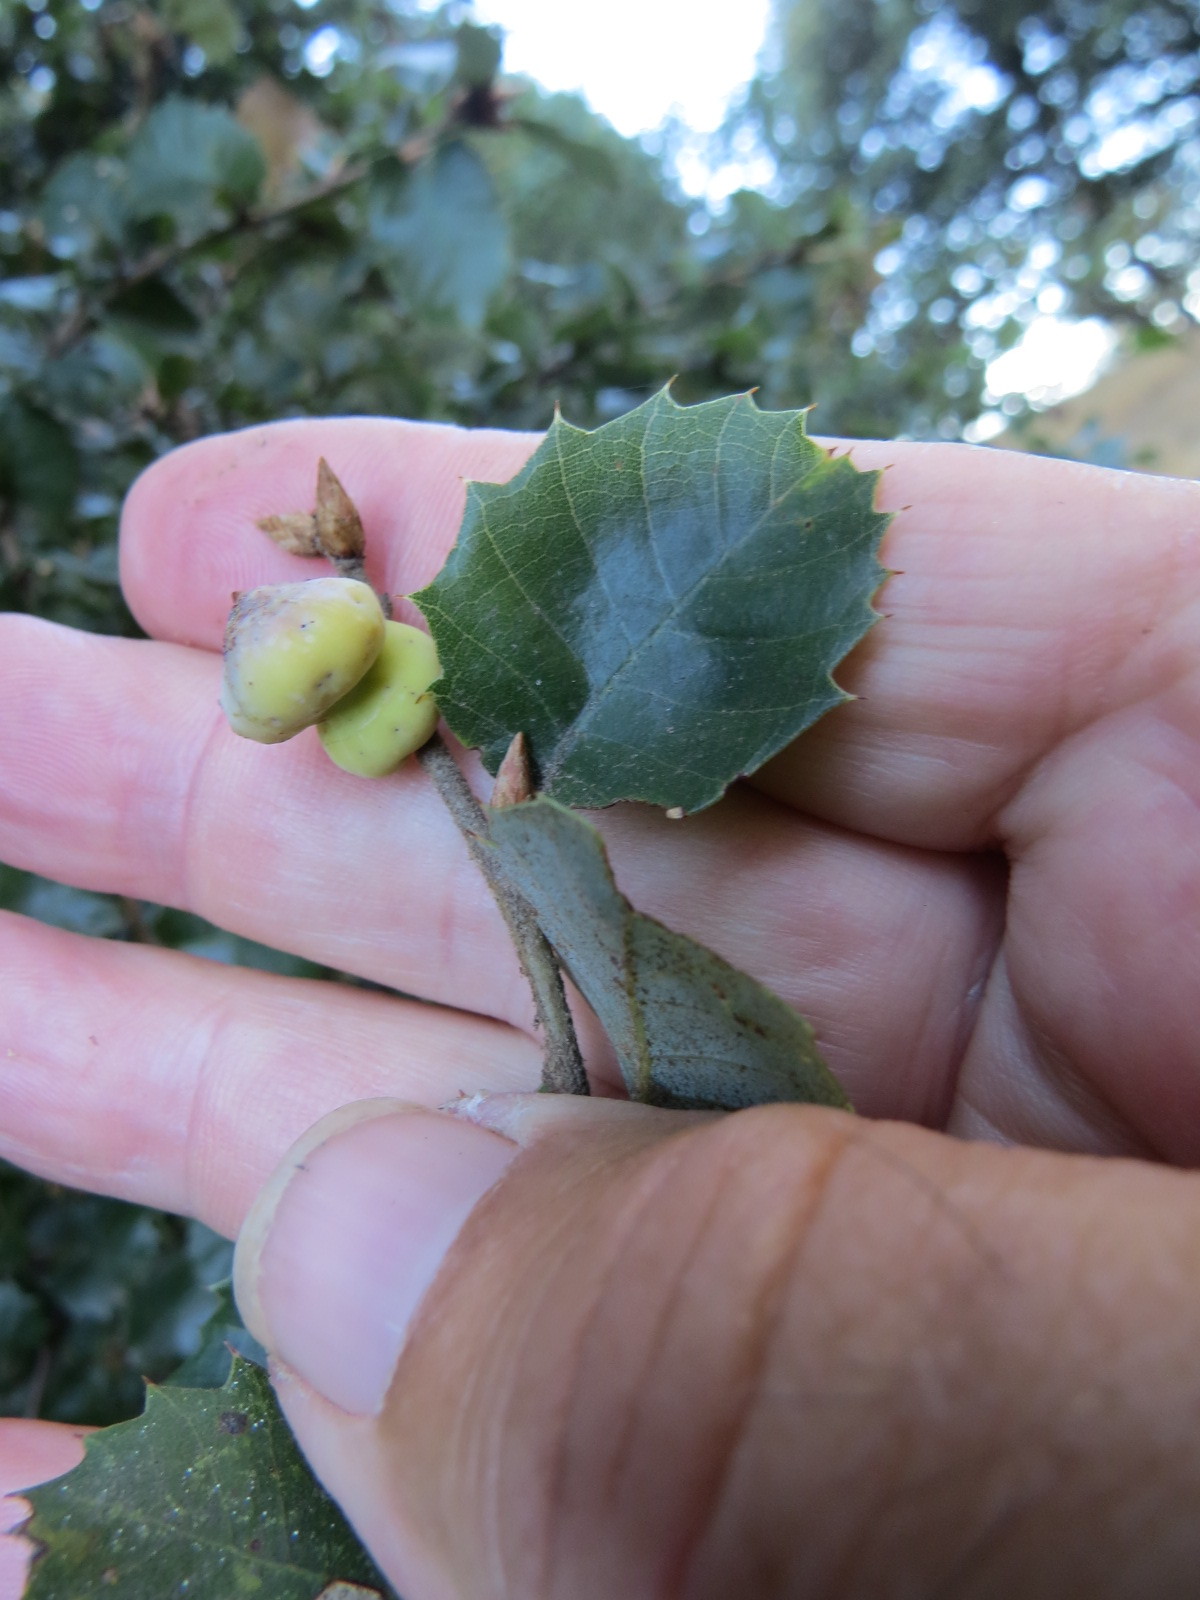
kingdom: Animalia
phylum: Arthropoda
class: Insecta
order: Hymenoptera
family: Cynipidae
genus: Heteroecus
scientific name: Heteroecus
